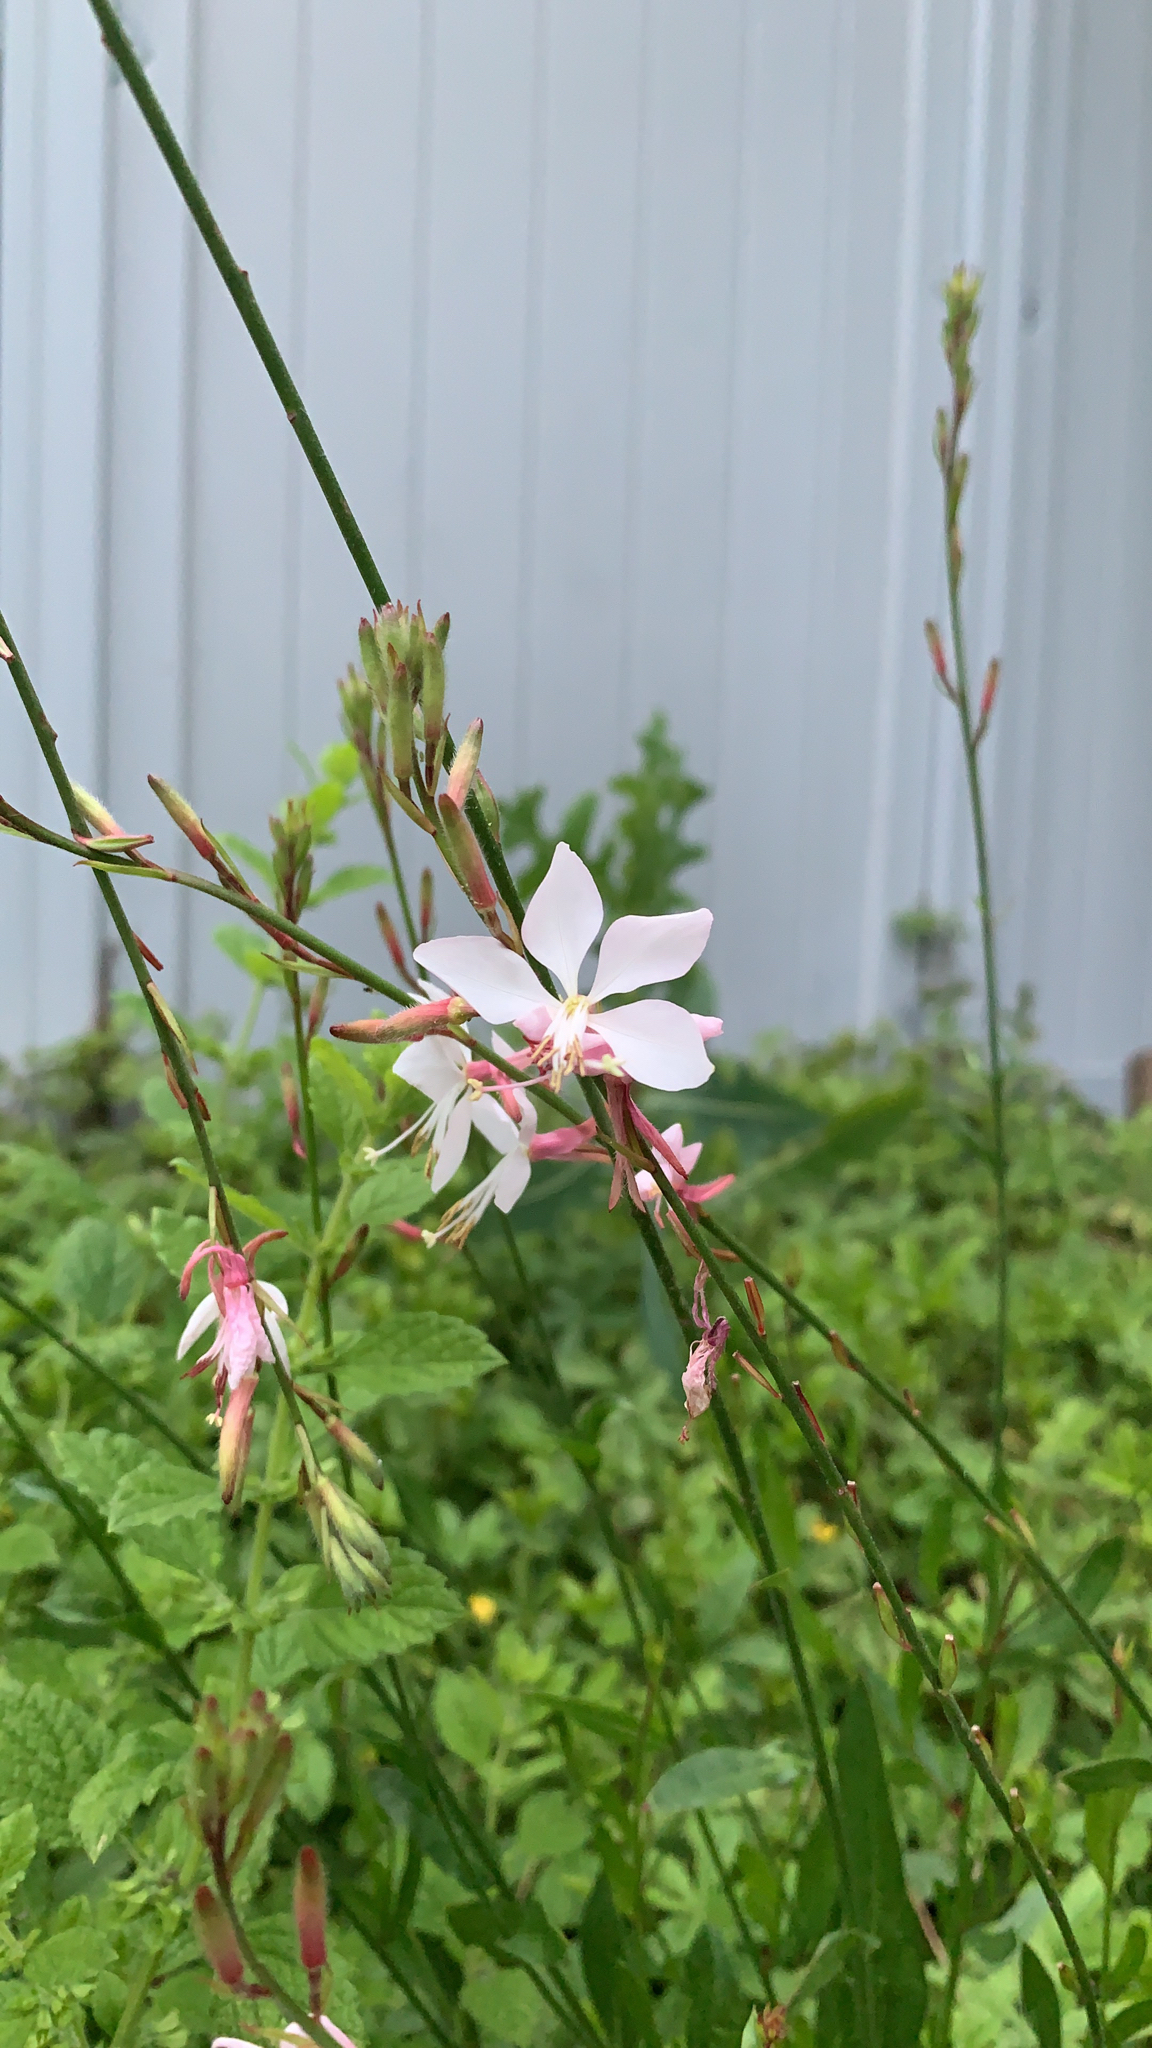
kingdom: Plantae
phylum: Tracheophyta
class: Magnoliopsida
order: Myrtales
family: Onagraceae
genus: Oenothera
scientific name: Oenothera lindheimeri
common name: Lindheimer's beeblossom
